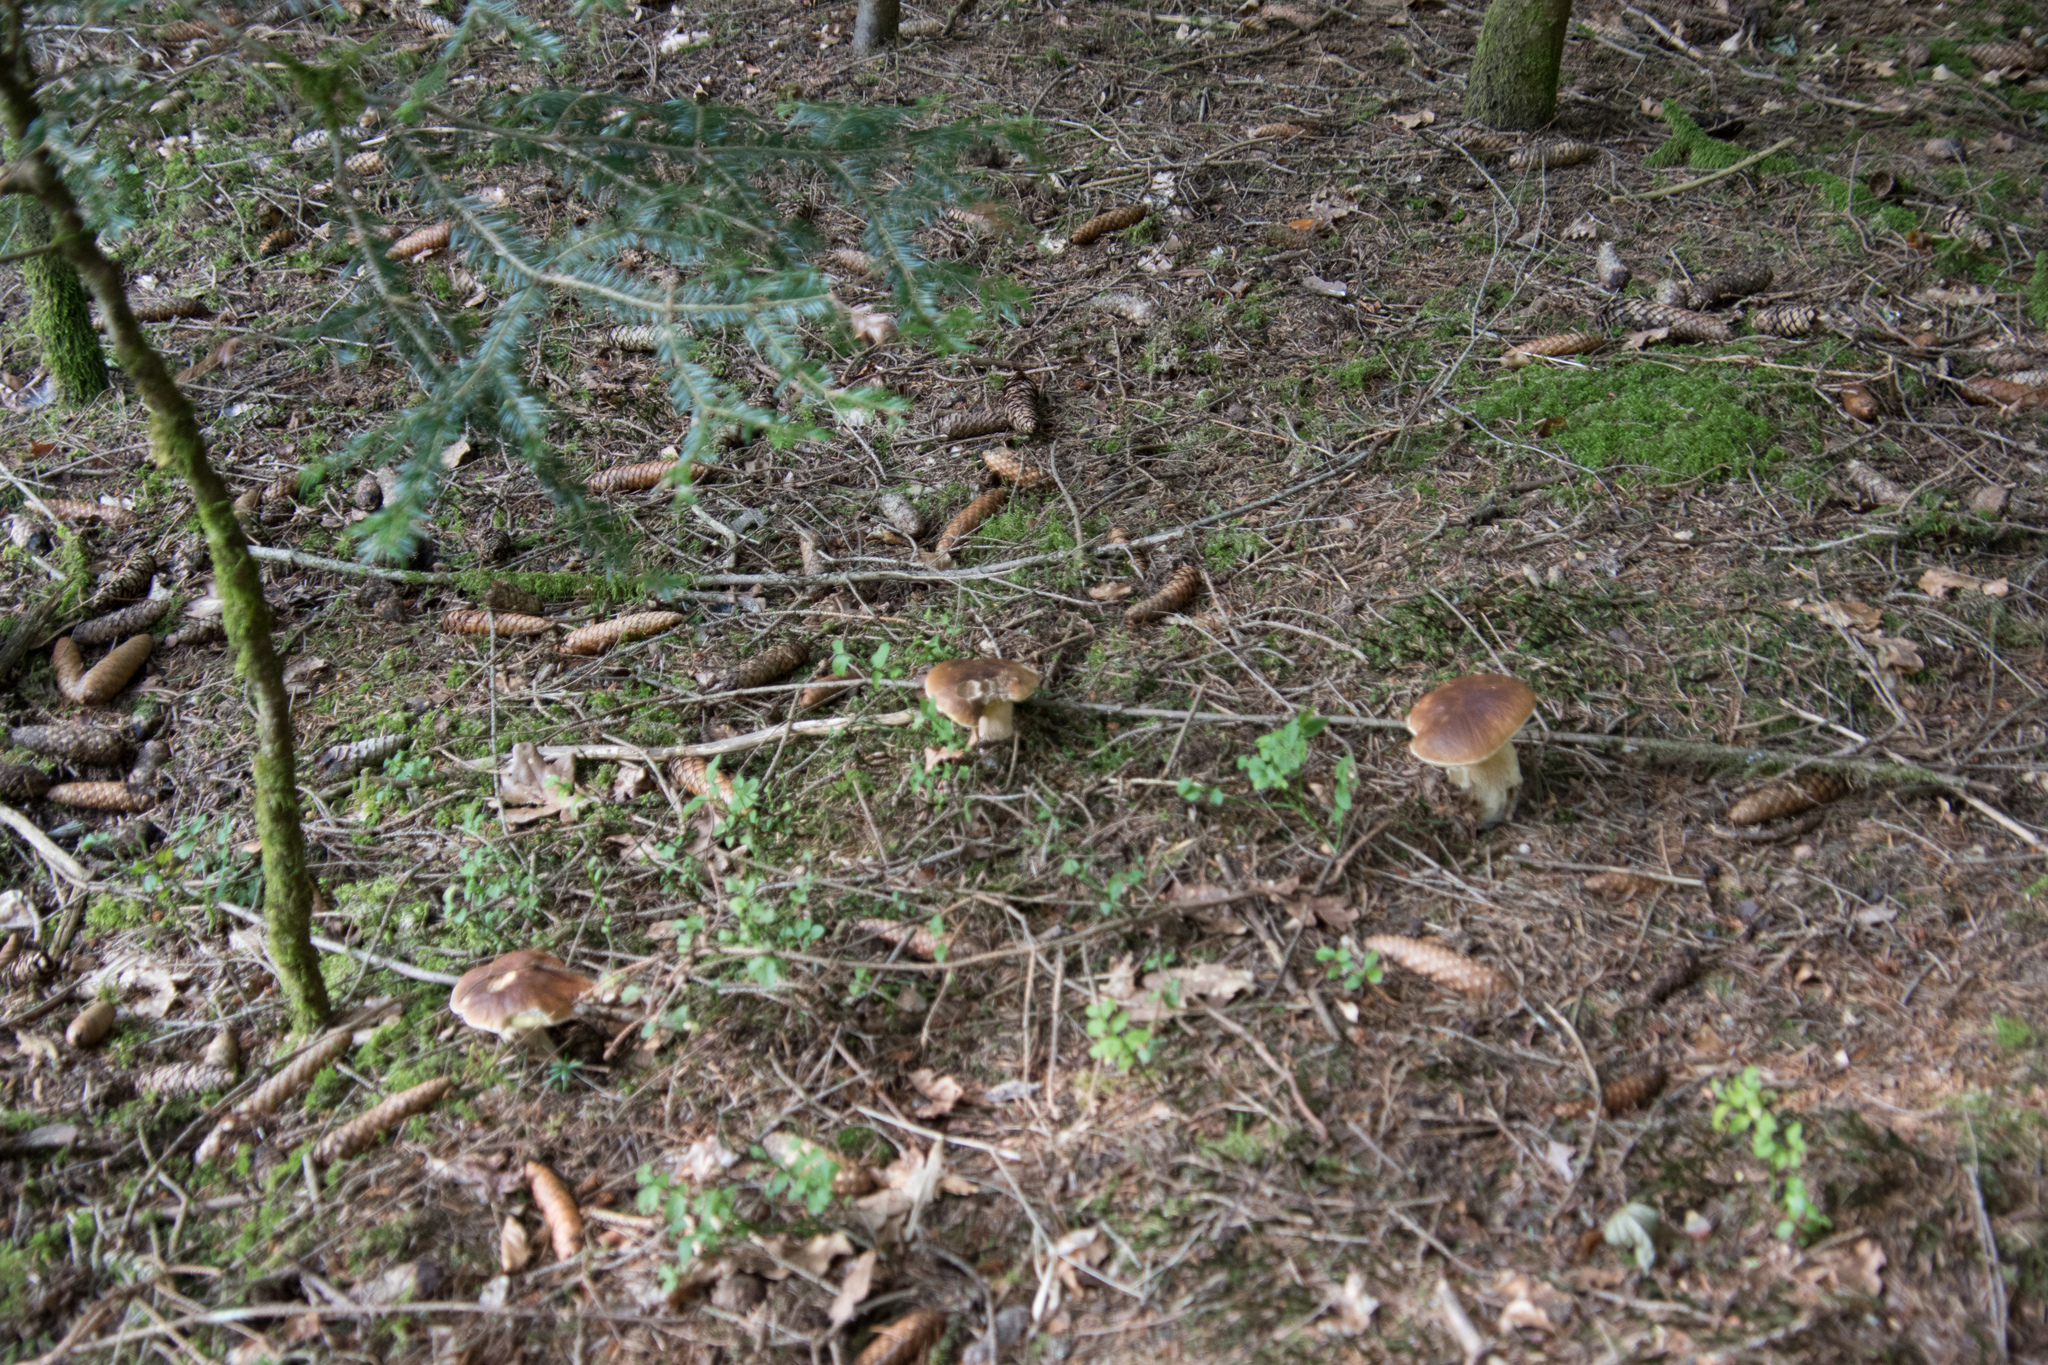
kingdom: Fungi
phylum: Basidiomycota
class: Agaricomycetes
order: Boletales
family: Boletaceae
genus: Boletus
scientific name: Boletus edulis
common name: Cep
